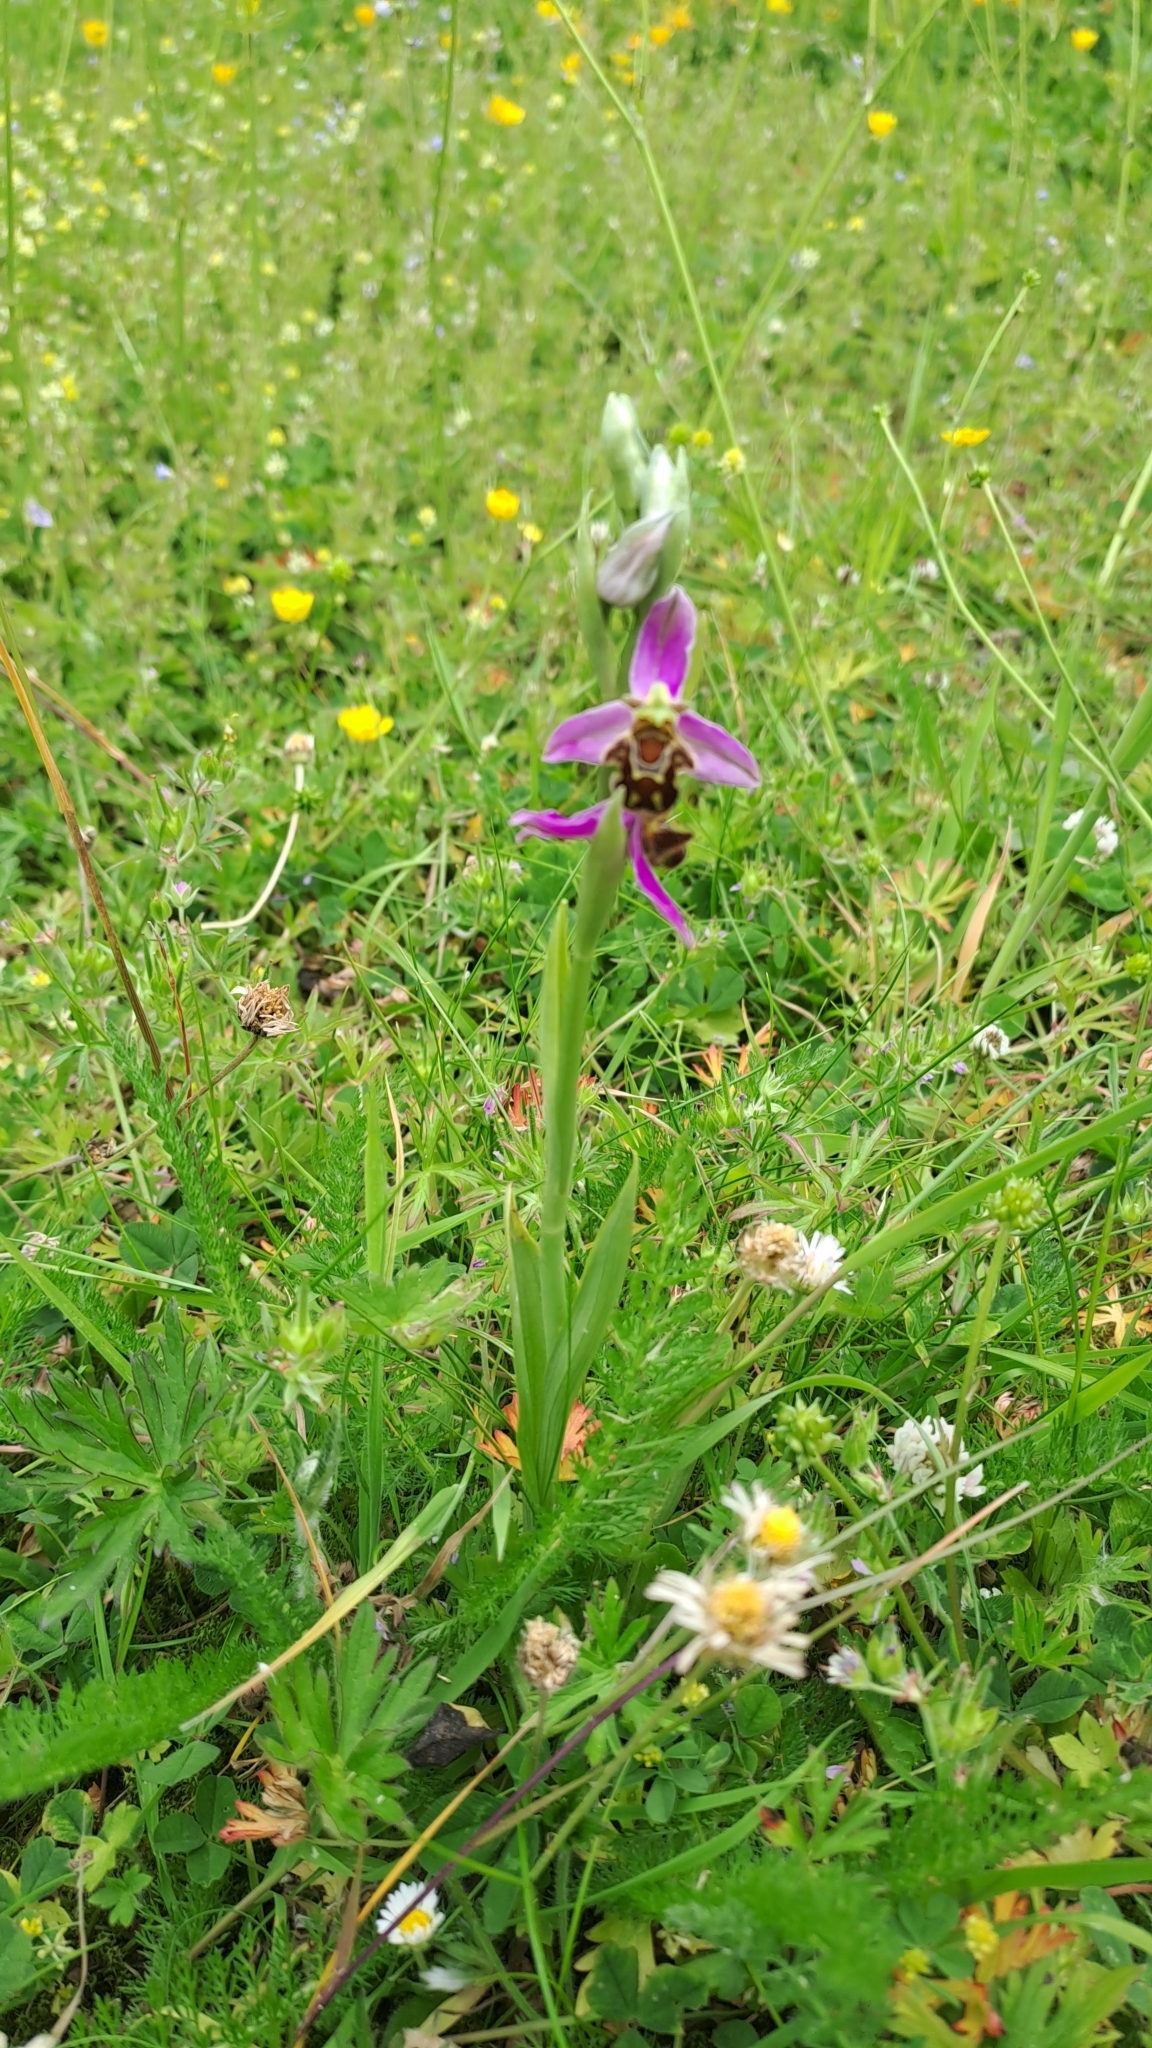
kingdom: Plantae
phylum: Tracheophyta
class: Liliopsida
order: Asparagales
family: Orchidaceae
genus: Ophrys
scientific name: Ophrys apifera
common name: Bee orchid
